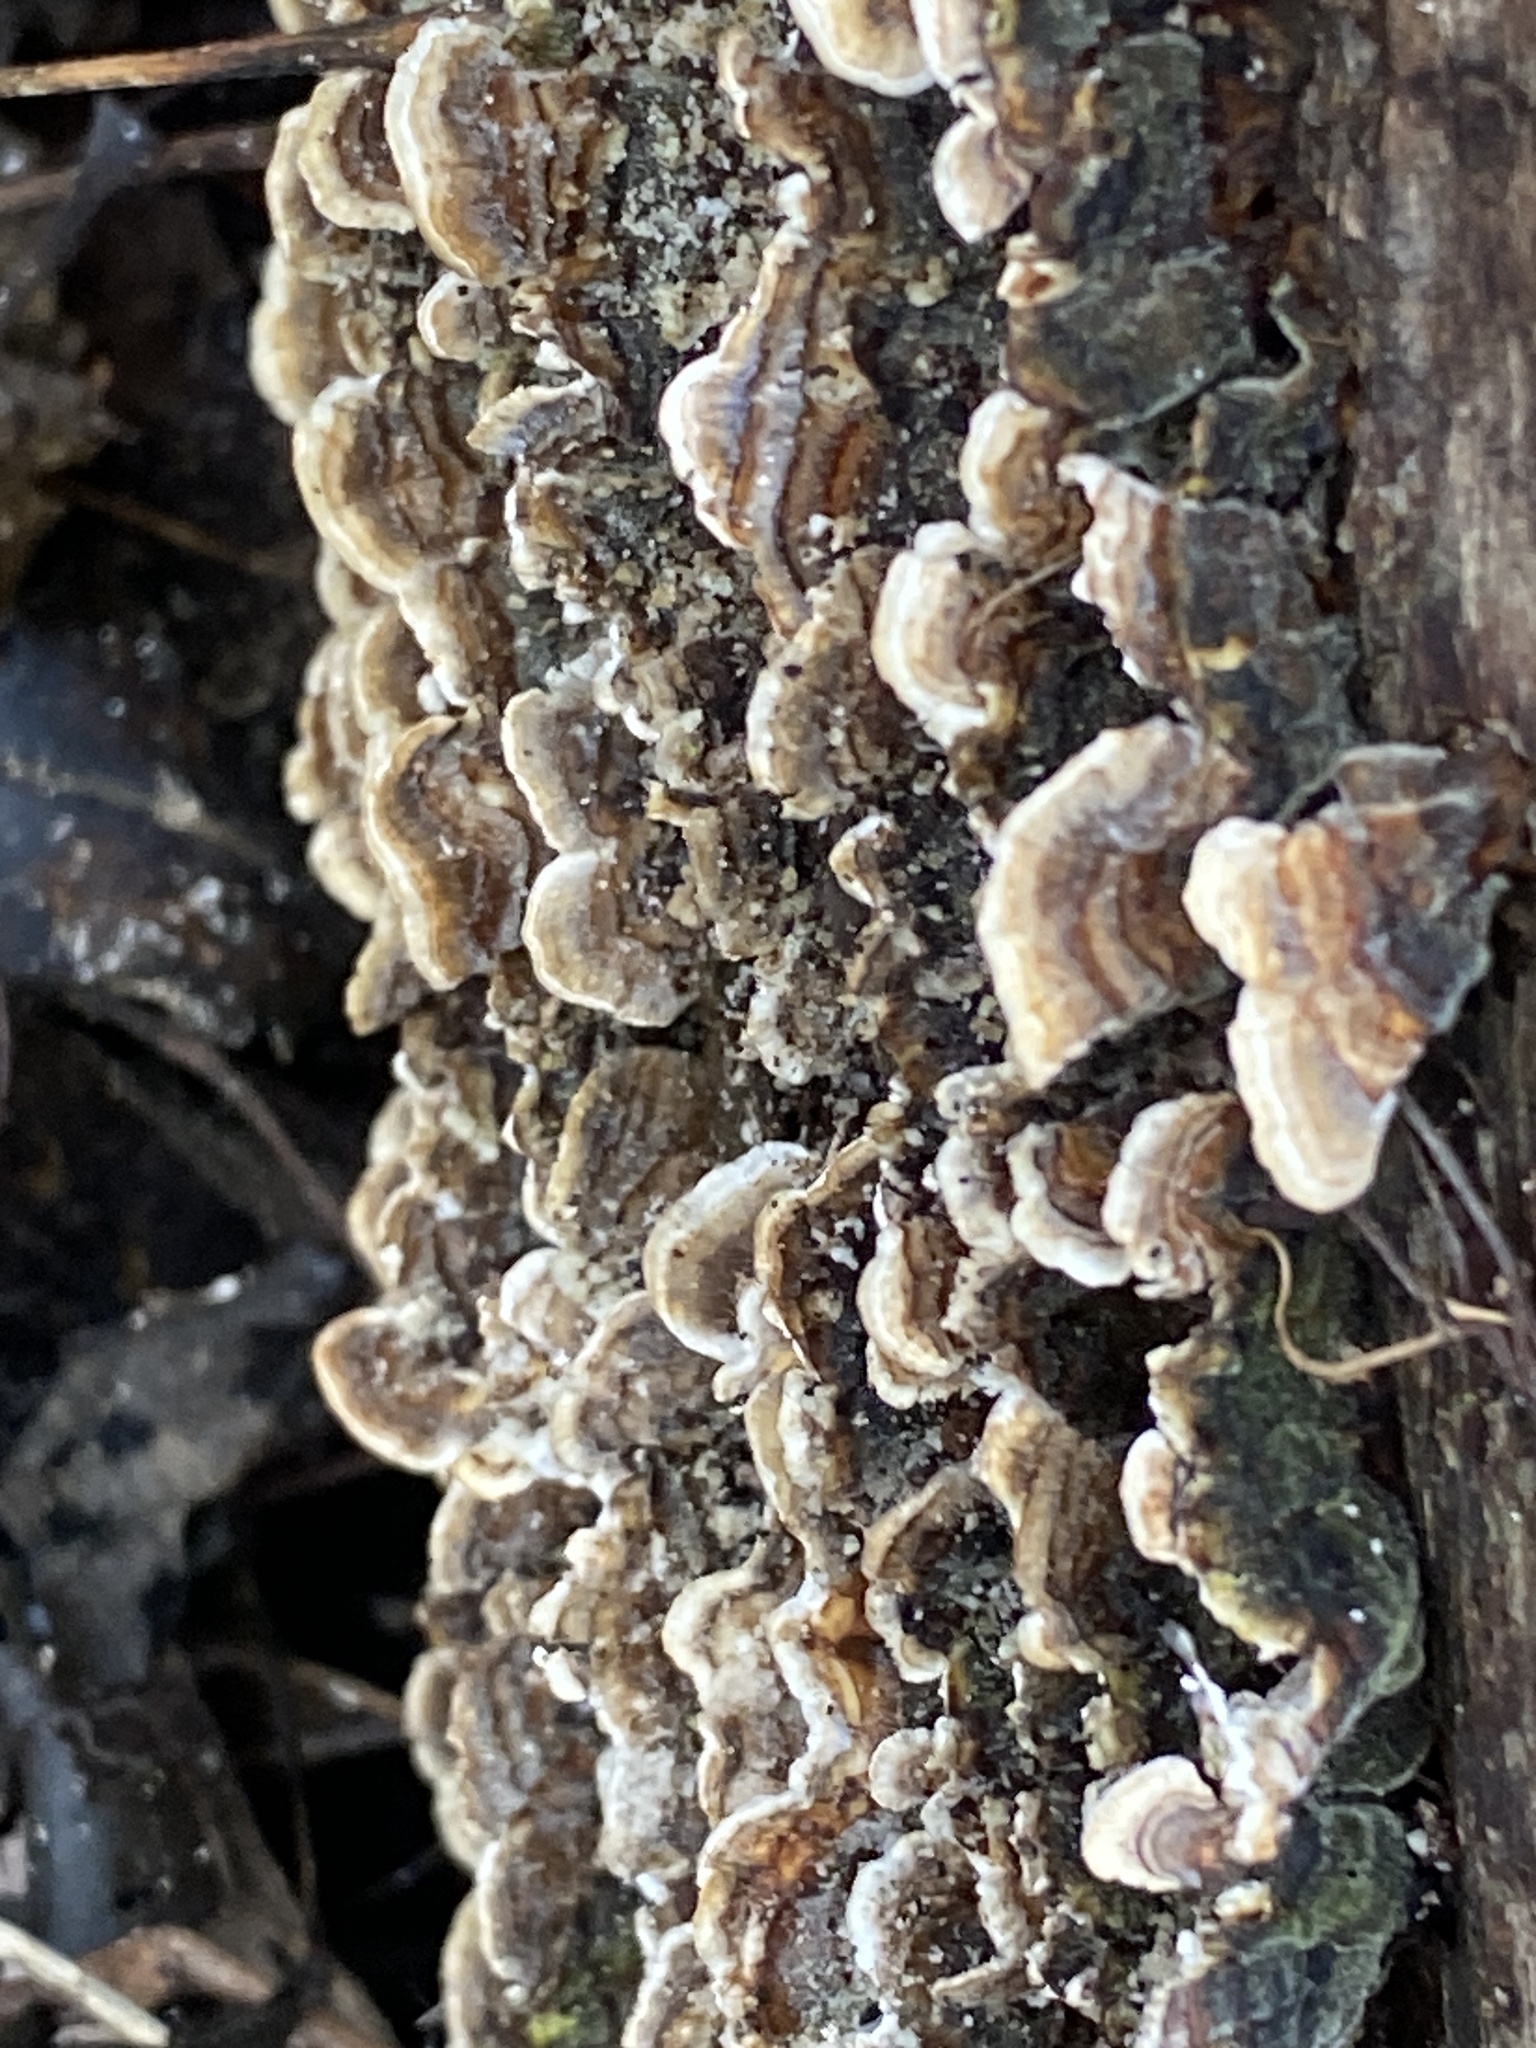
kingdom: Fungi
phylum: Basidiomycota
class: Agaricomycetes
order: Polyporales
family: Polyporaceae
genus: Trametes
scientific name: Trametes versicolor
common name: Turkeytail
